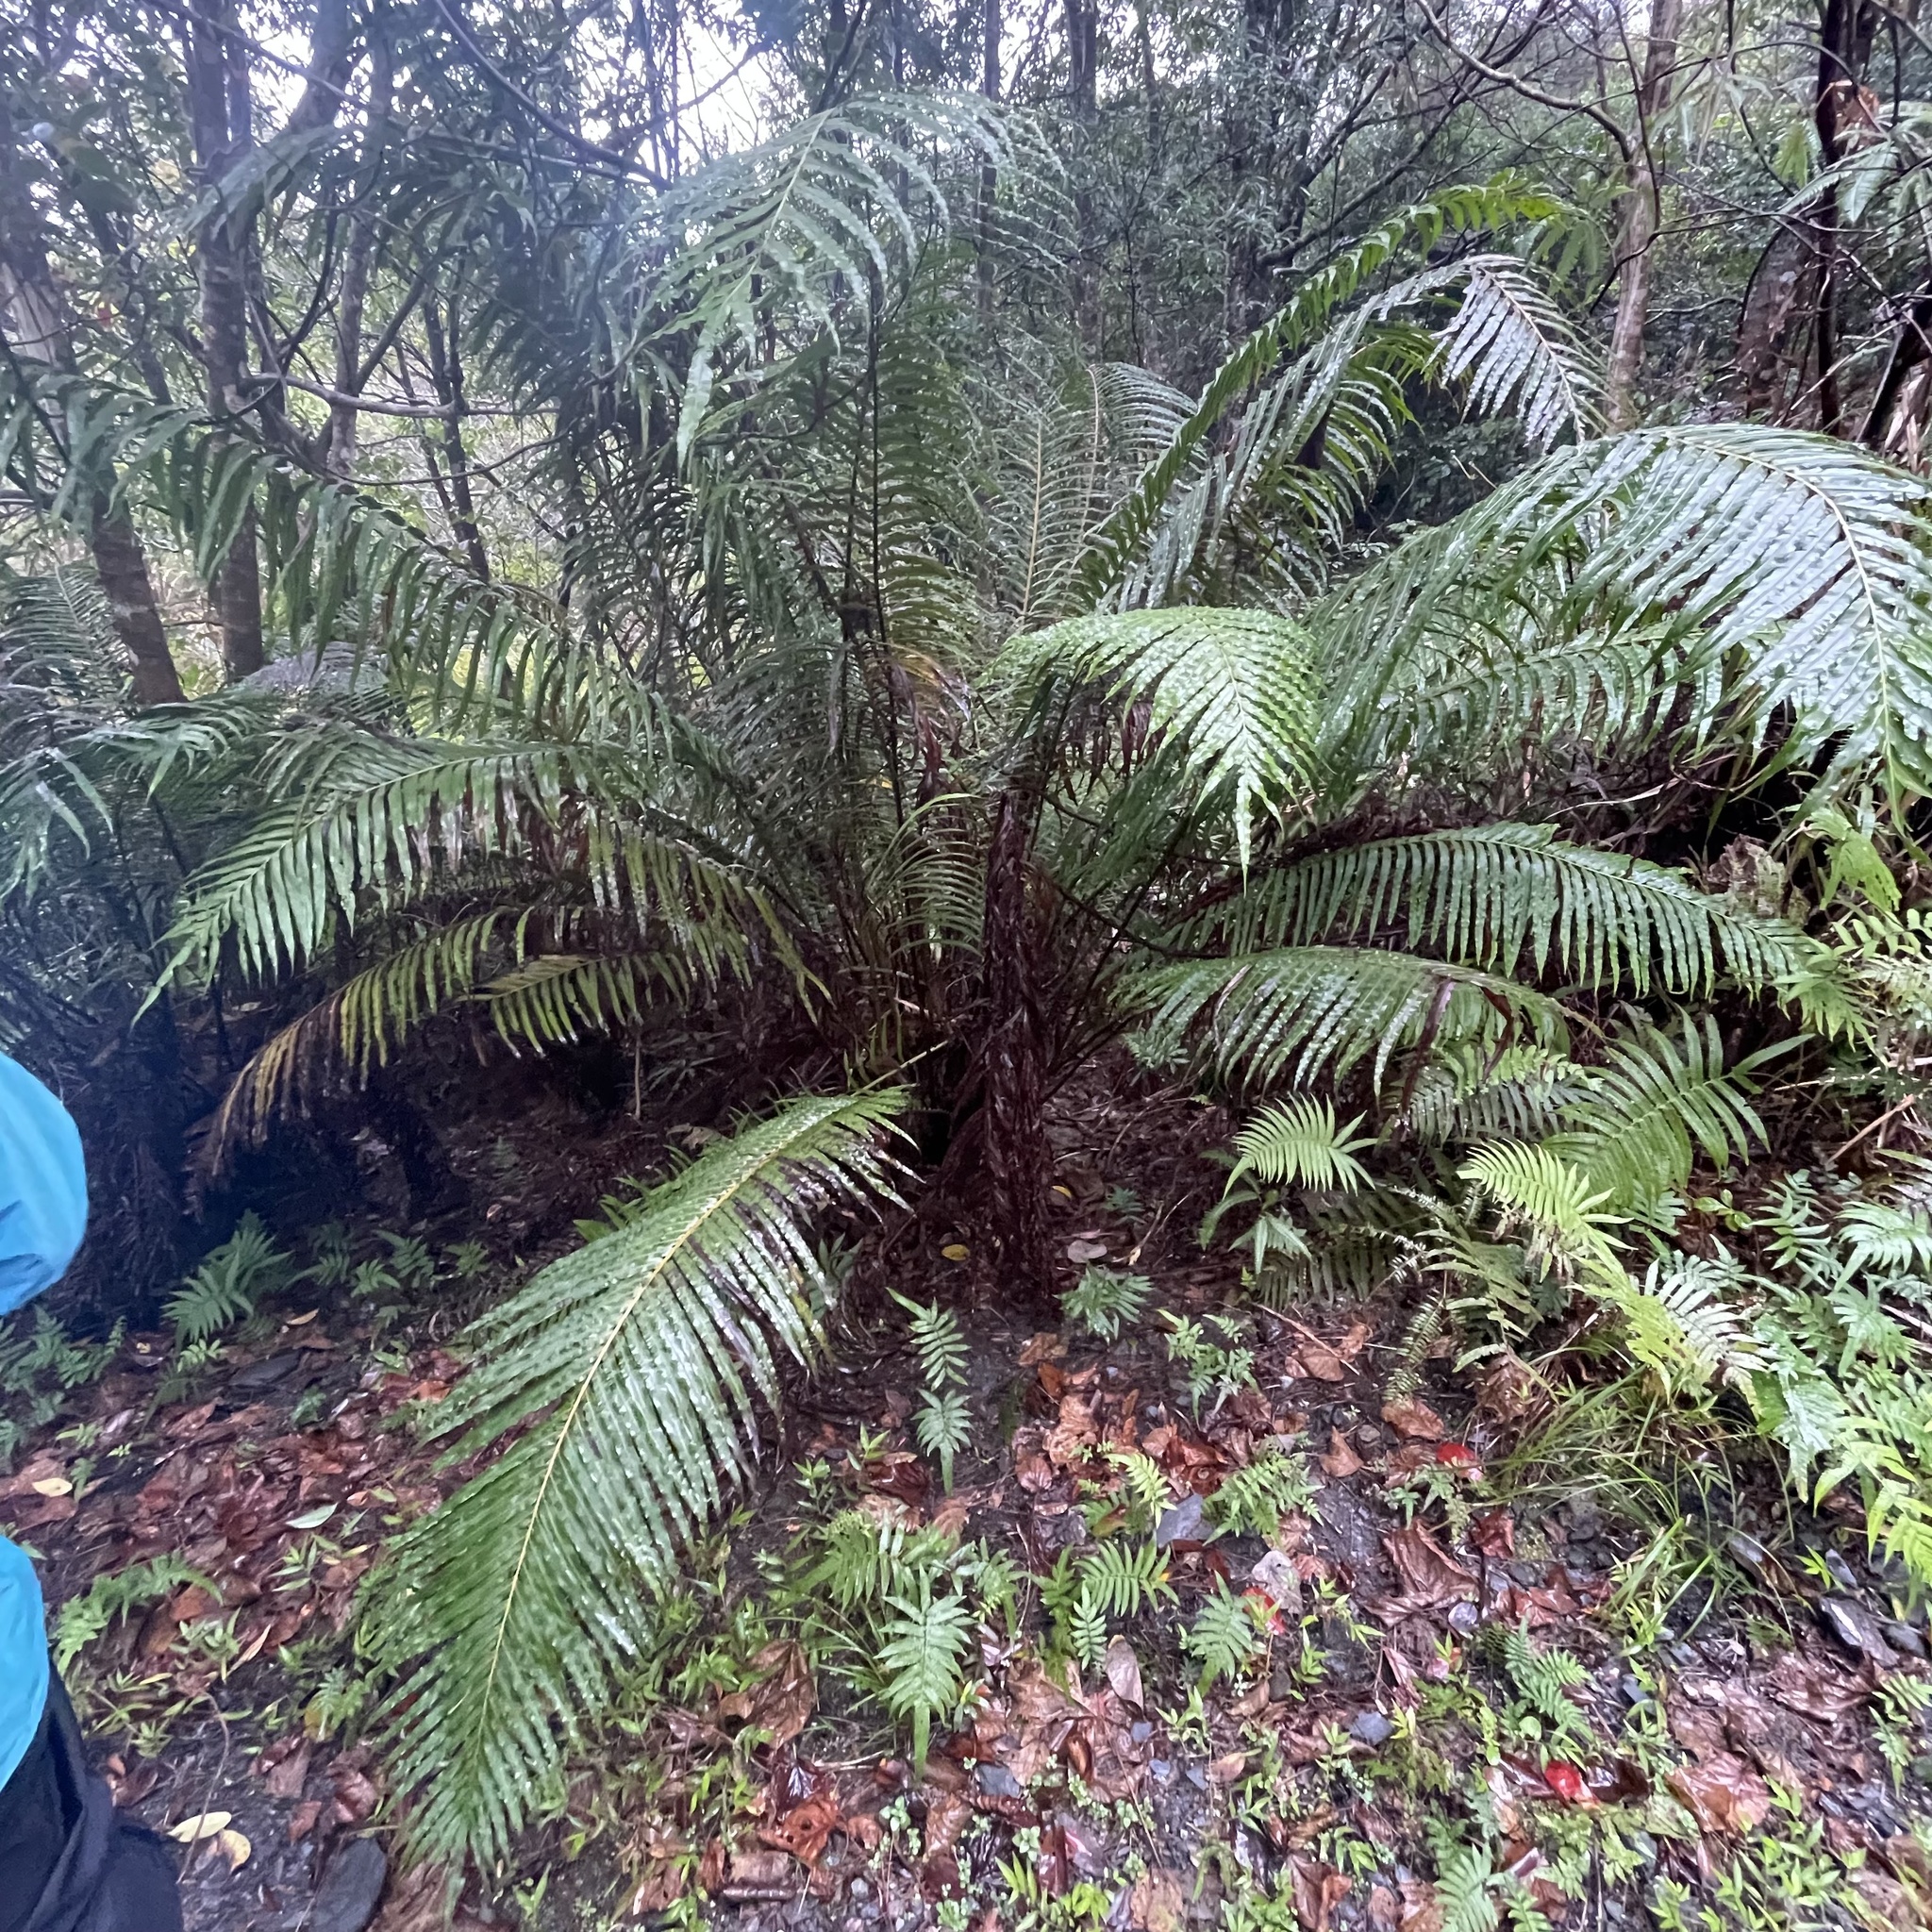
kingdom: Plantae
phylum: Tracheophyta
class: Polypodiopsida
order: Polypodiales
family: Blechnaceae
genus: Blechnopsis
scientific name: Blechnopsis orientalis
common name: Oriental blechnum
